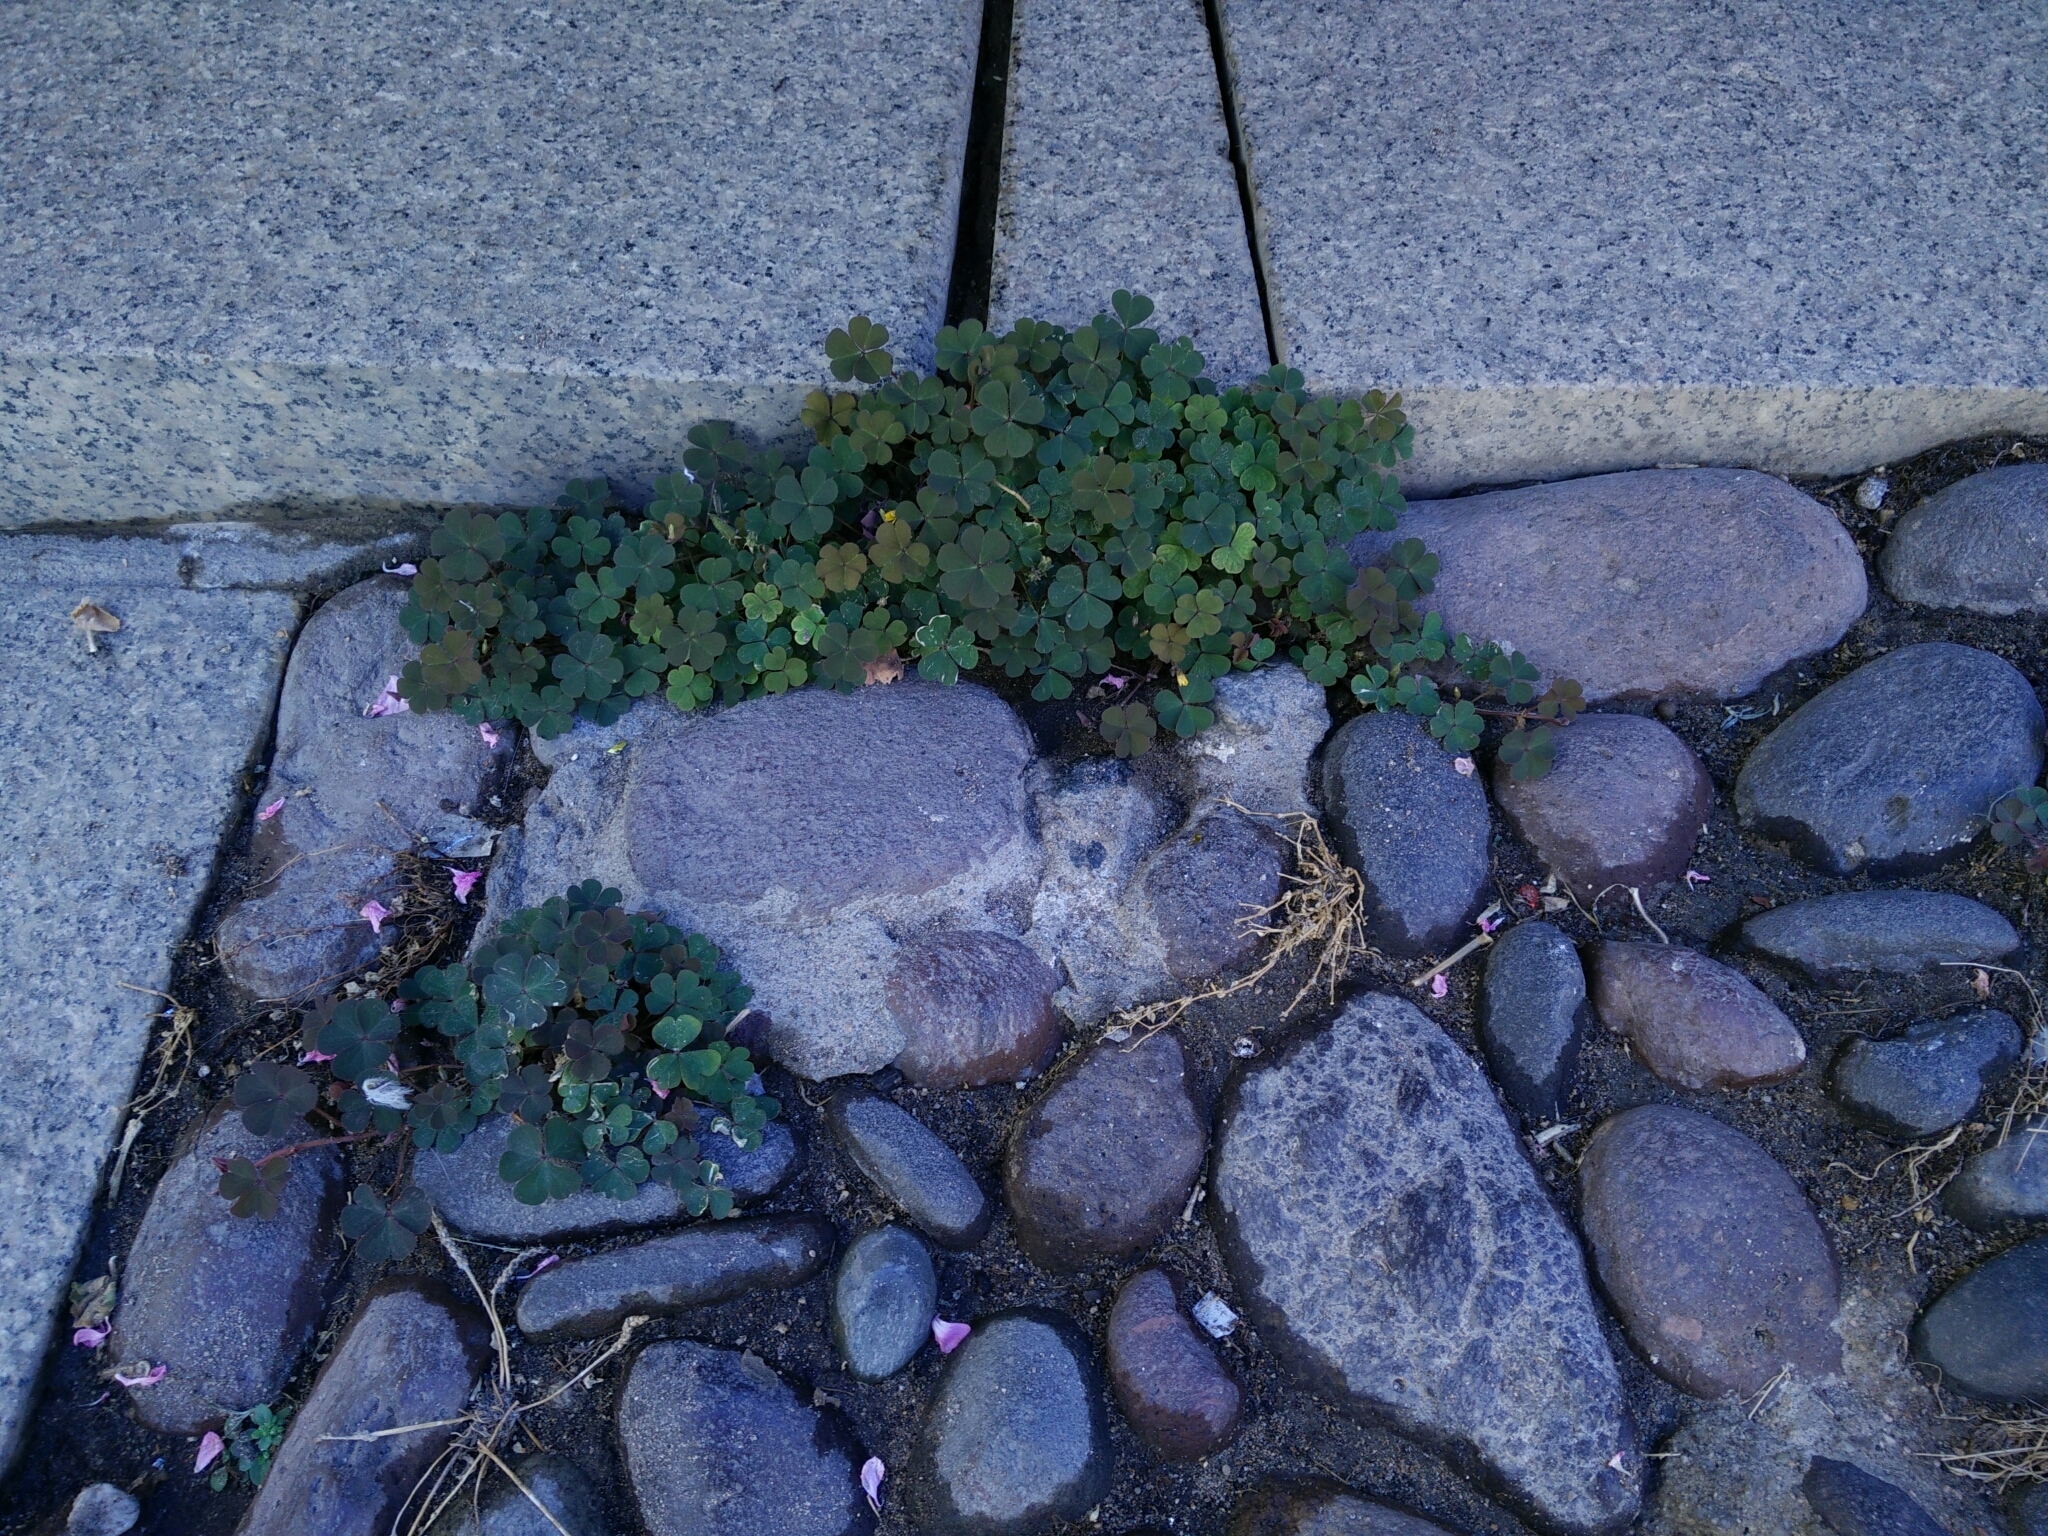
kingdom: Plantae
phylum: Tracheophyta
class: Magnoliopsida
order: Oxalidales
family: Oxalidaceae
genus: Oxalis
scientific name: Oxalis corniculata
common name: Procumbent yellow-sorrel
